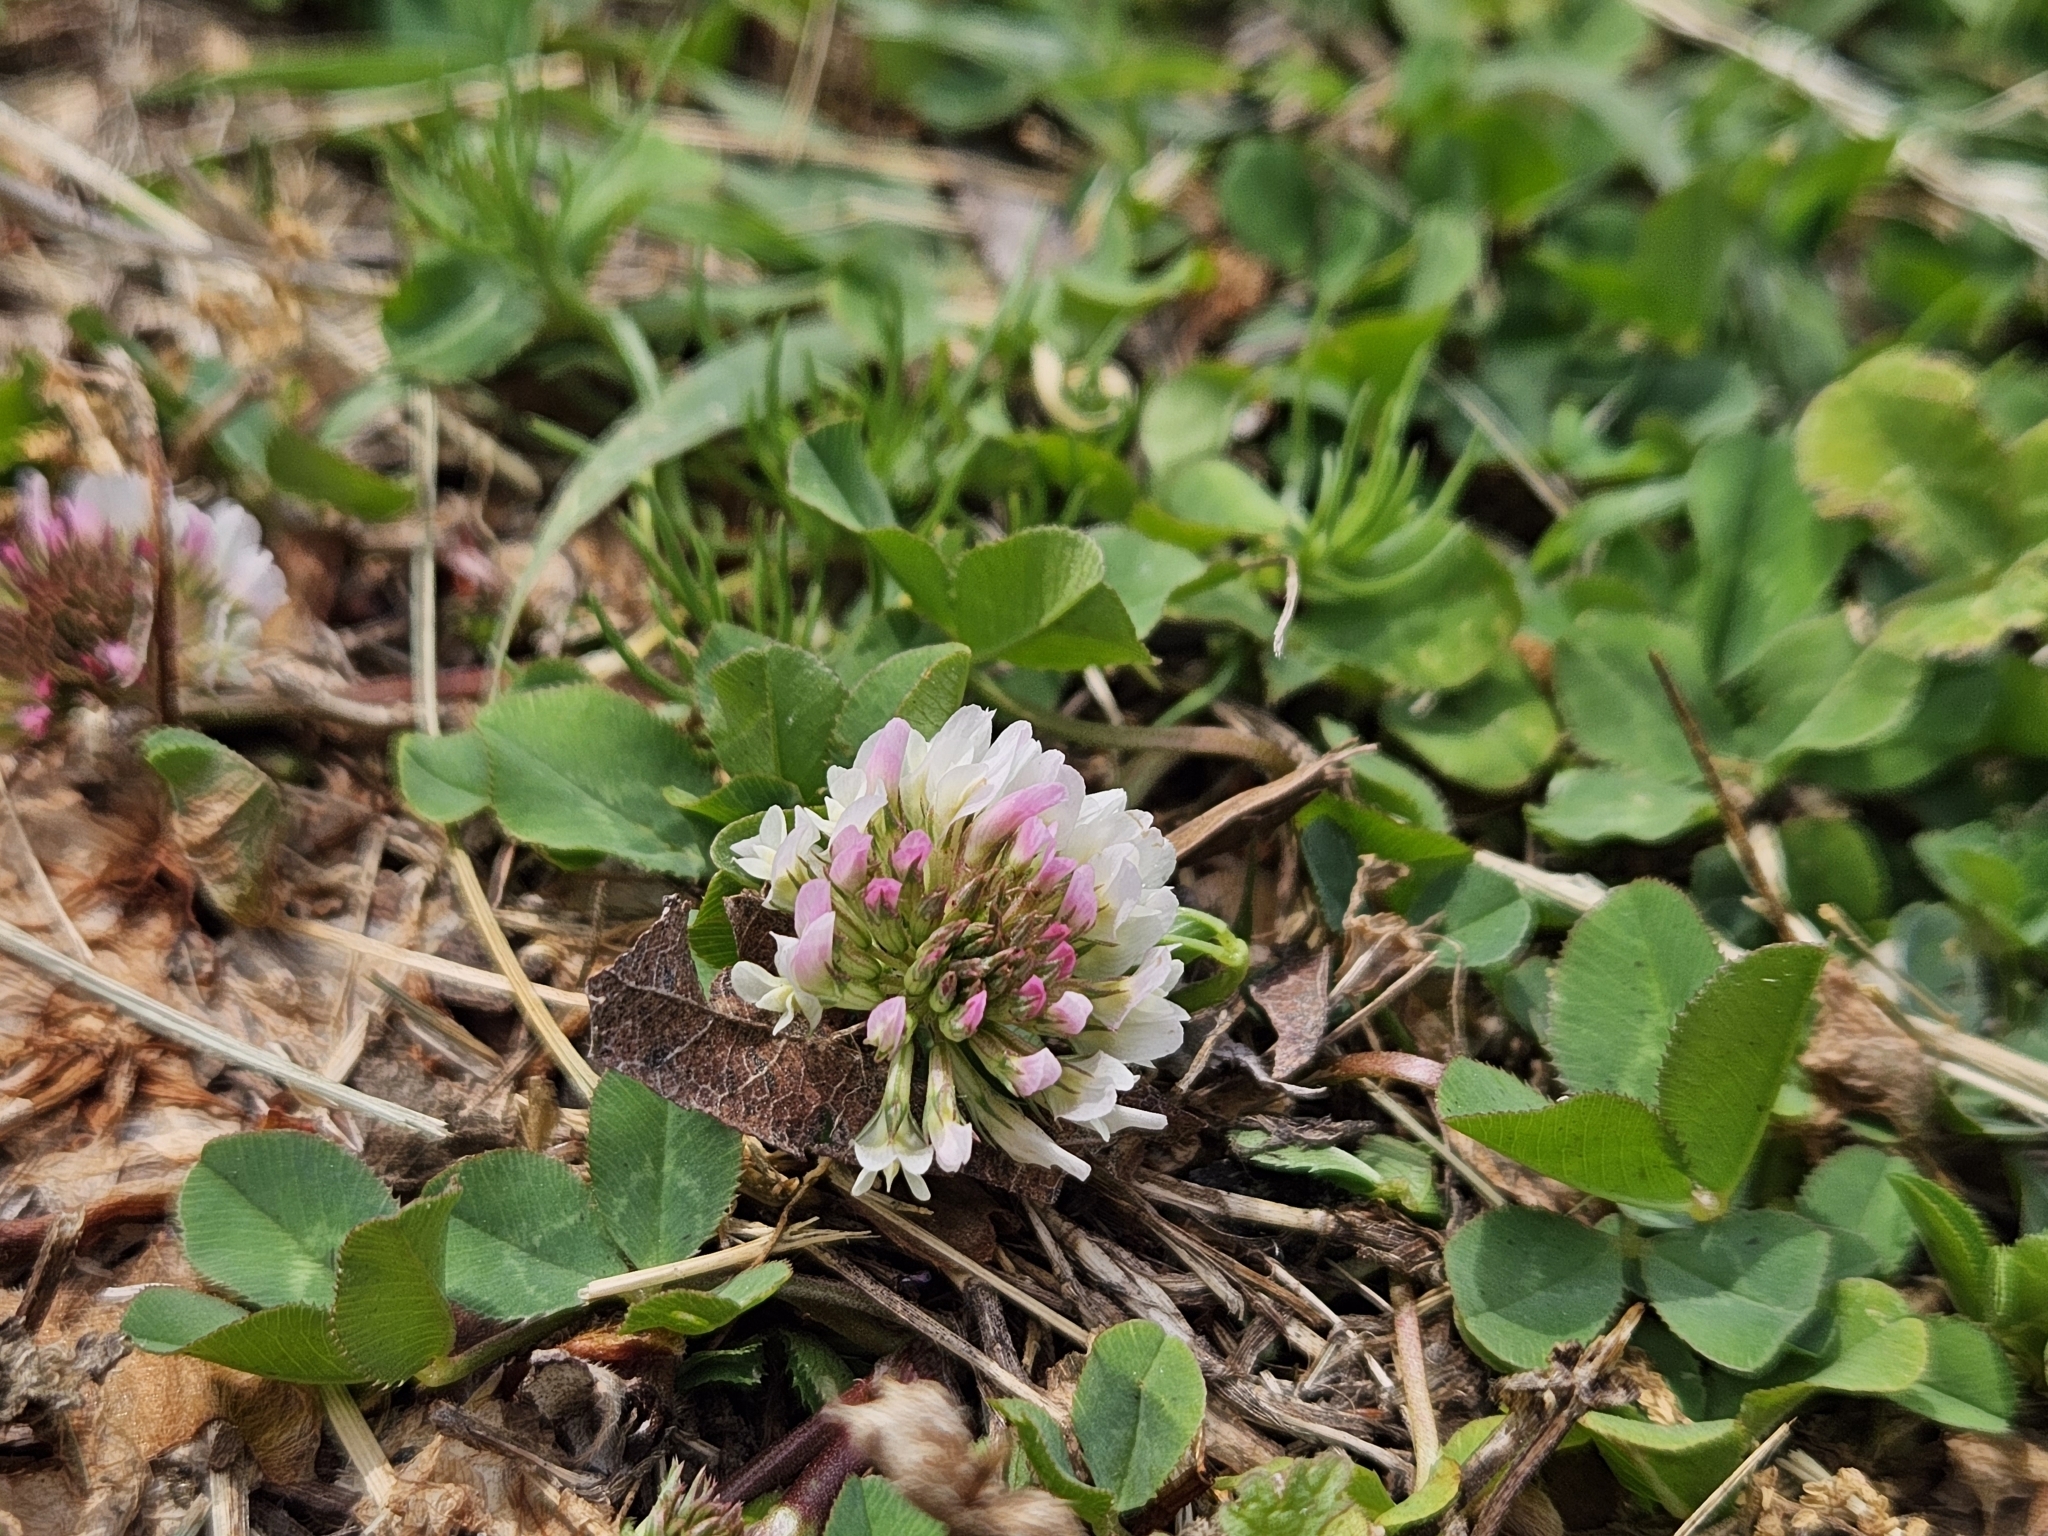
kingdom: Plantae
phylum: Tracheophyta
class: Magnoliopsida
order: Fabales
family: Fabaceae
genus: Trifolium
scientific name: Trifolium repens
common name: White clover
